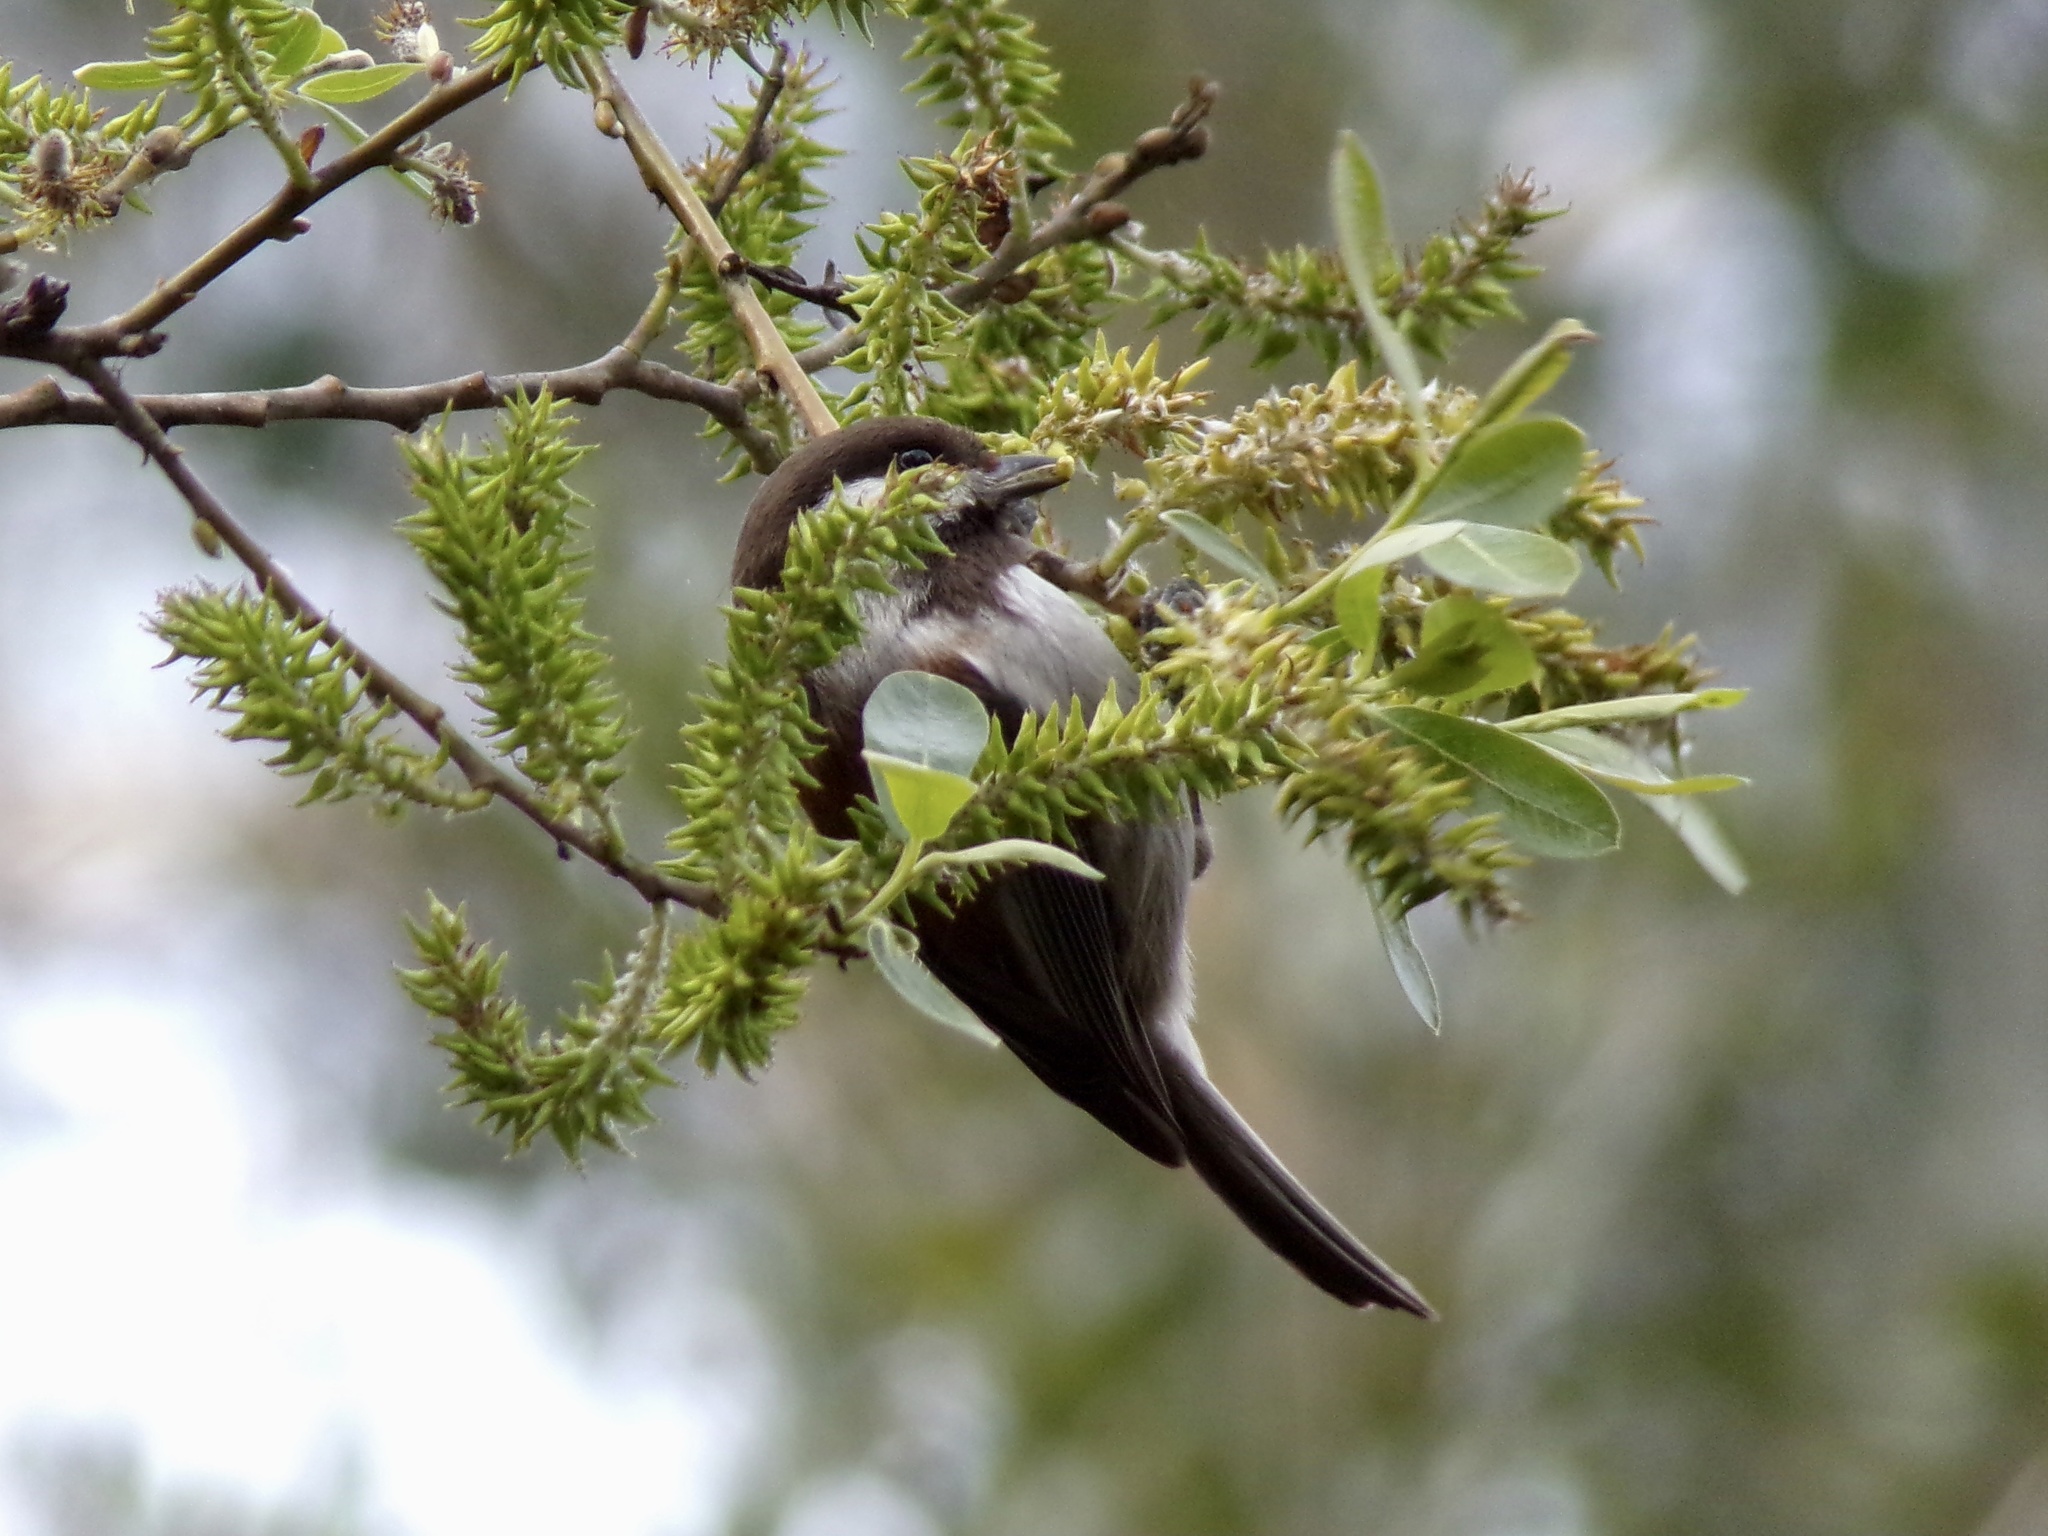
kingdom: Animalia
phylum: Chordata
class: Aves
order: Passeriformes
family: Paridae
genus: Poecile
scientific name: Poecile rufescens
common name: Chestnut-backed chickadee
